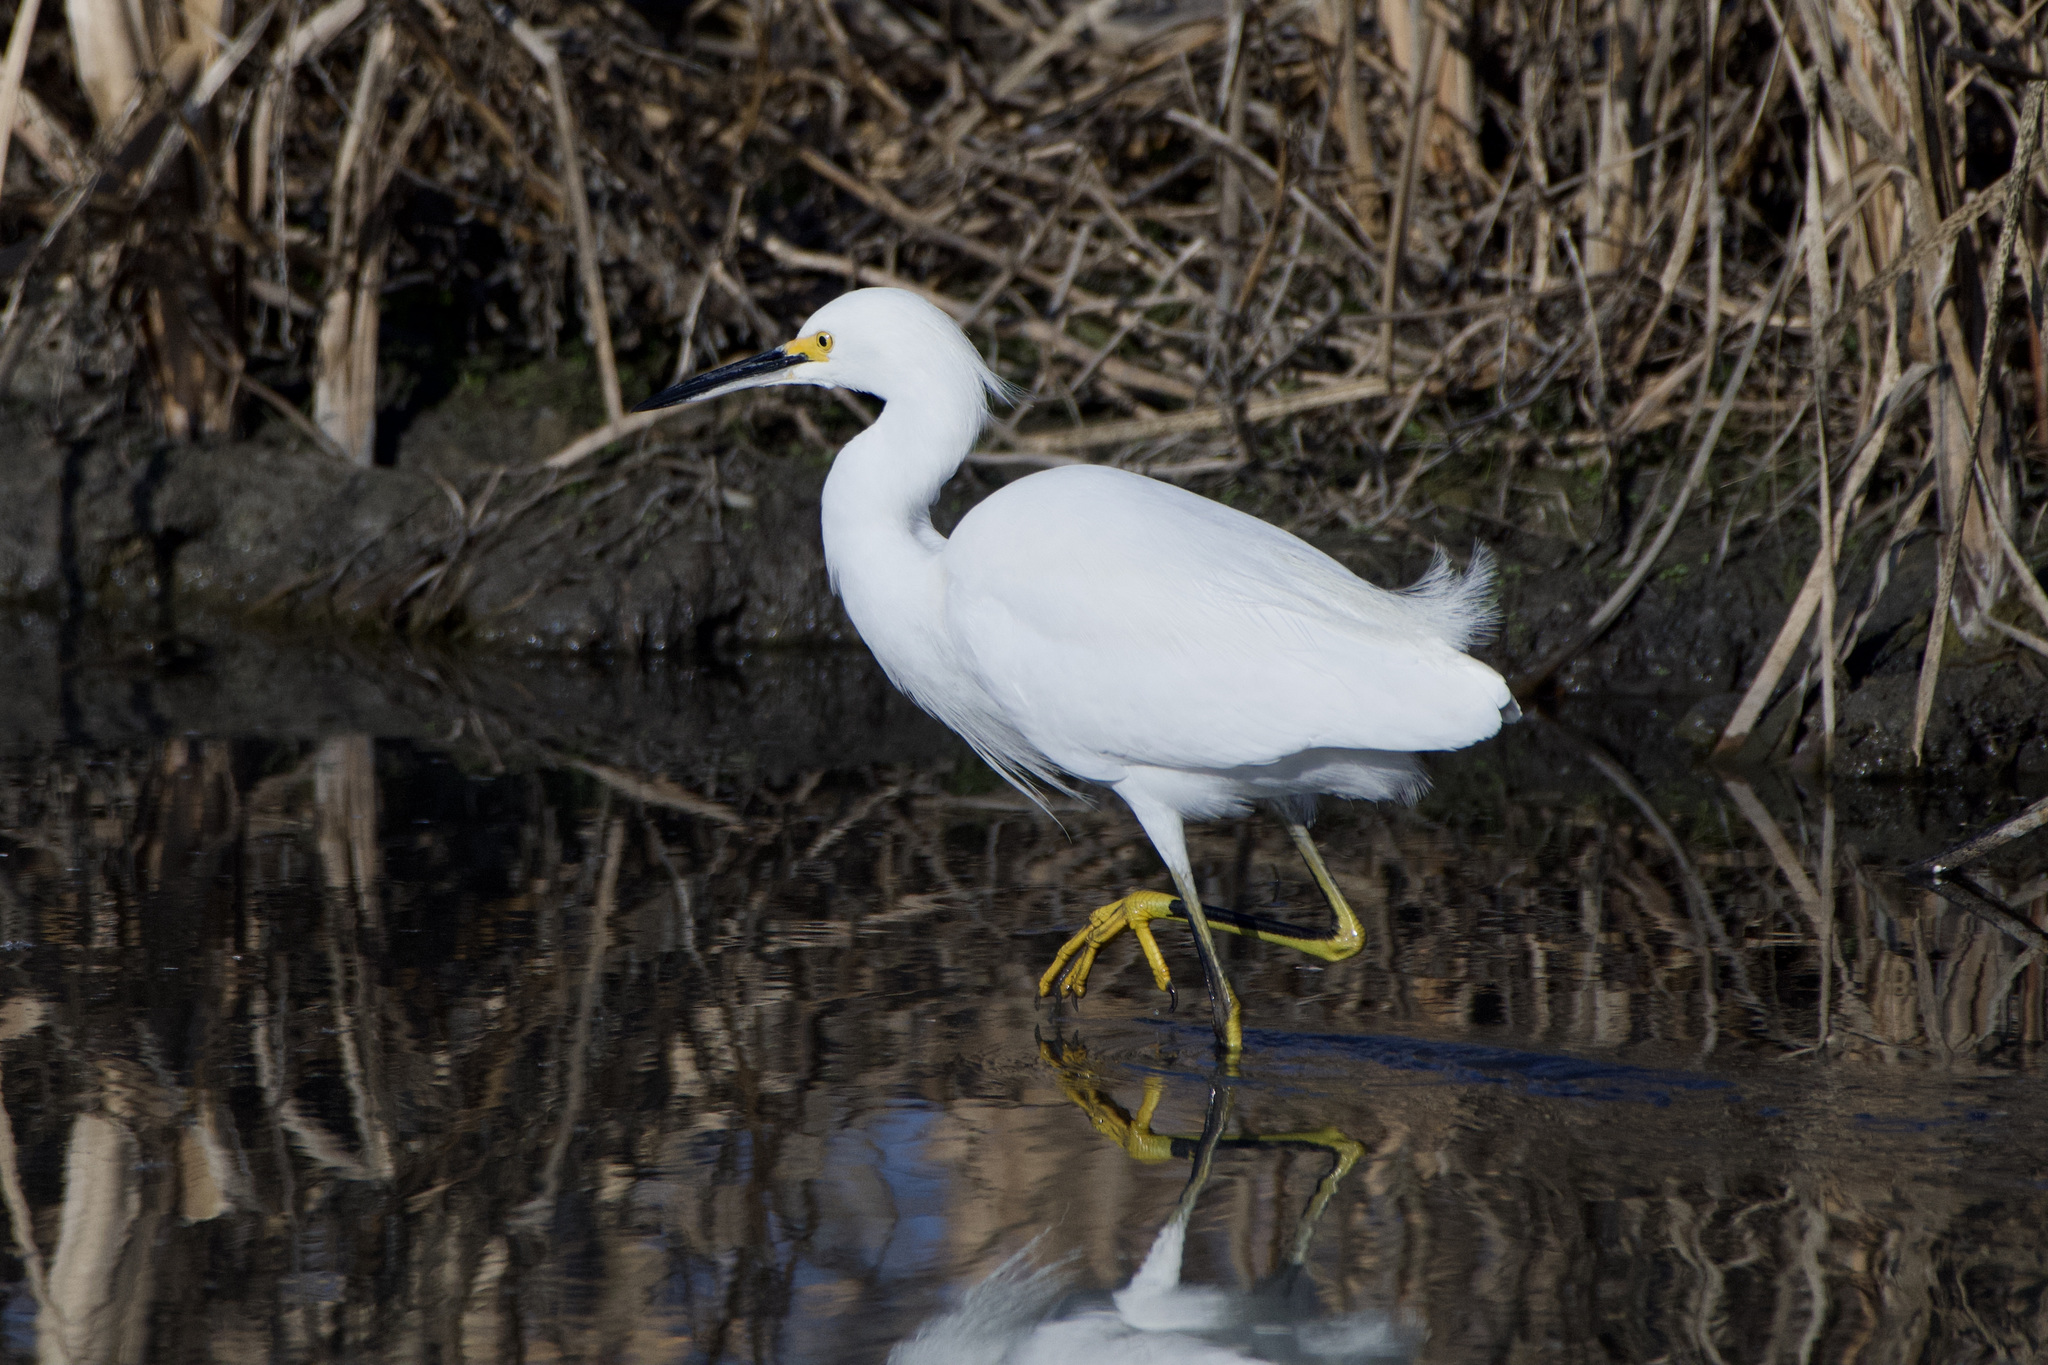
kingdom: Animalia
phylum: Chordata
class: Aves
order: Pelecaniformes
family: Ardeidae
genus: Egretta
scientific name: Egretta thula
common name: Snowy egret
